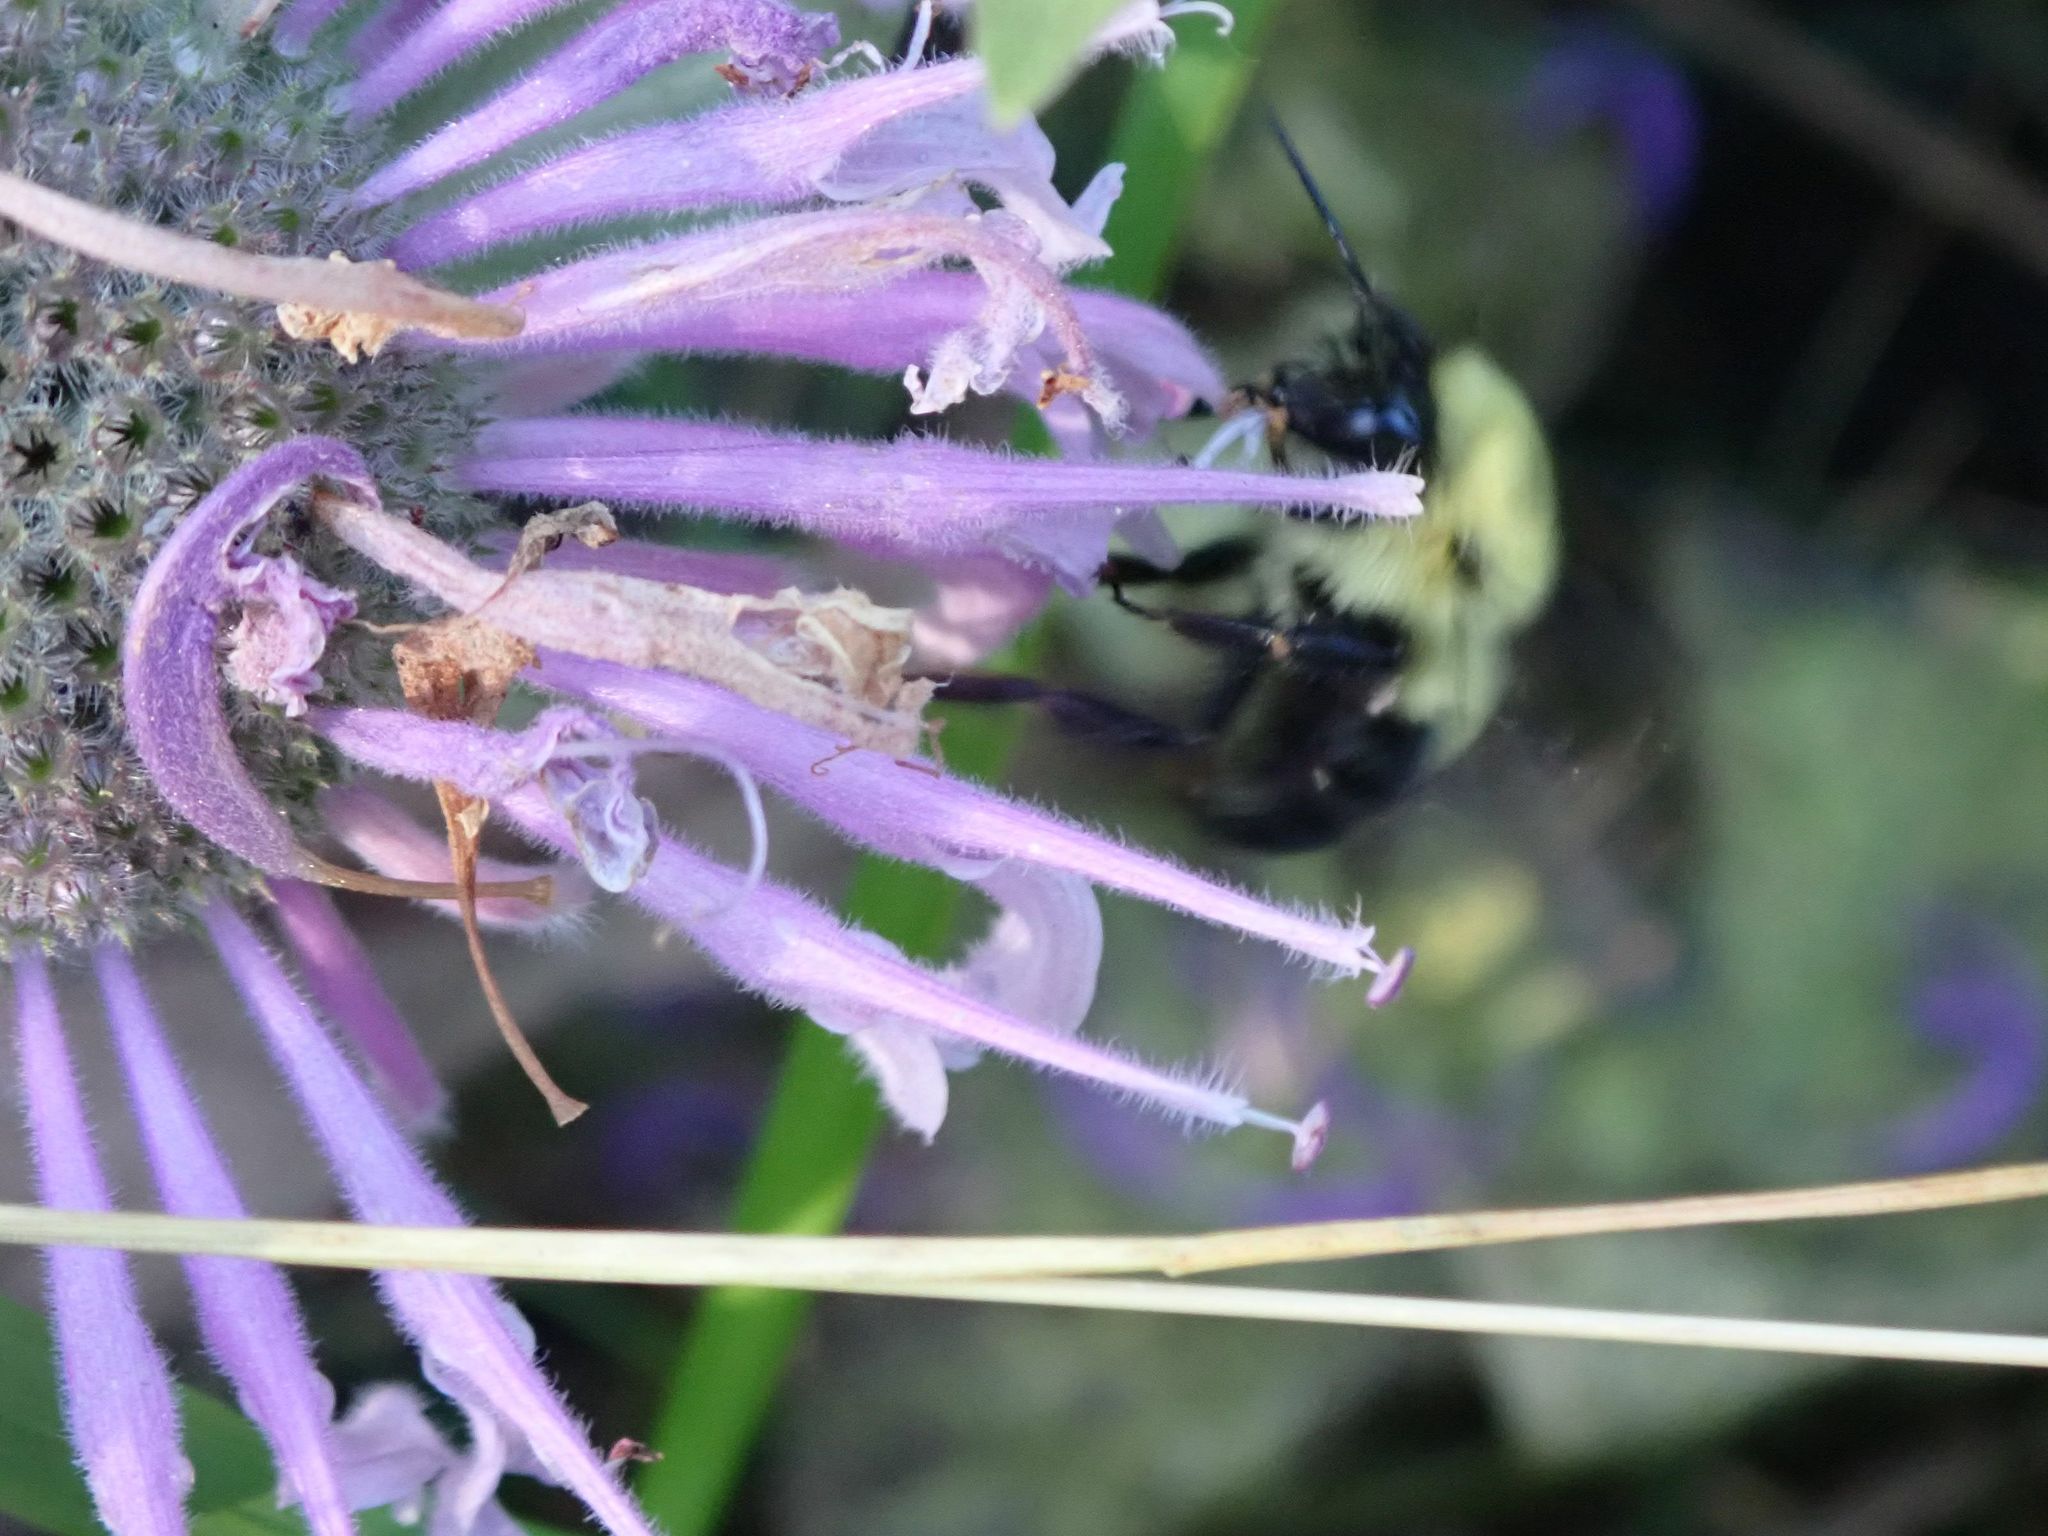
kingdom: Animalia
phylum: Arthropoda
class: Insecta
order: Hymenoptera
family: Apidae
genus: Bombus
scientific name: Bombus bimaculatus
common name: Two-spotted bumble bee
